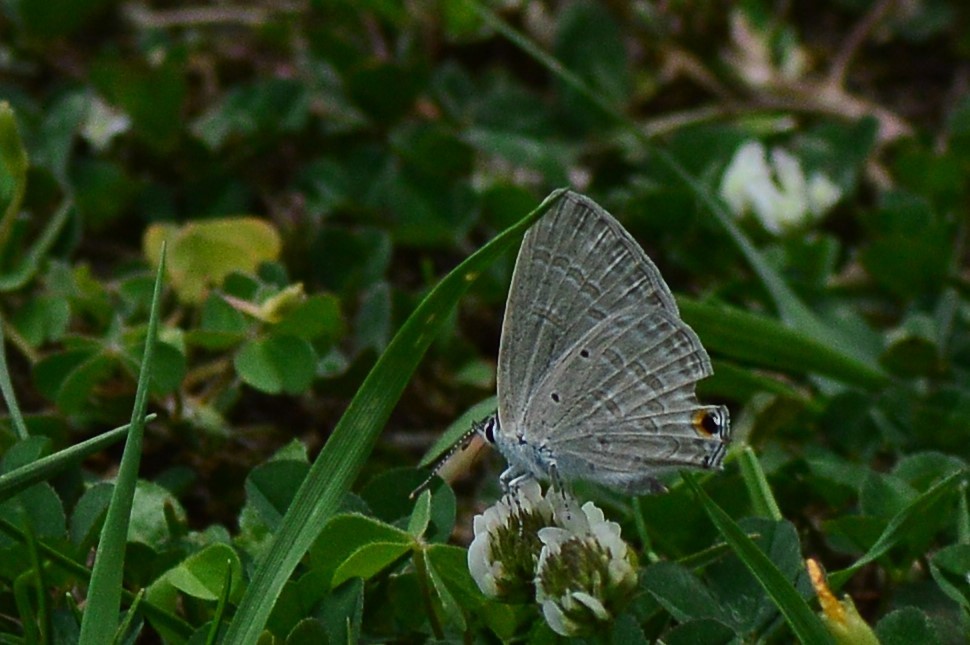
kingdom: Animalia
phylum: Arthropoda
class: Insecta
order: Lepidoptera
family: Lycaenidae
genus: Catochrysops
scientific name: Catochrysops strabo
